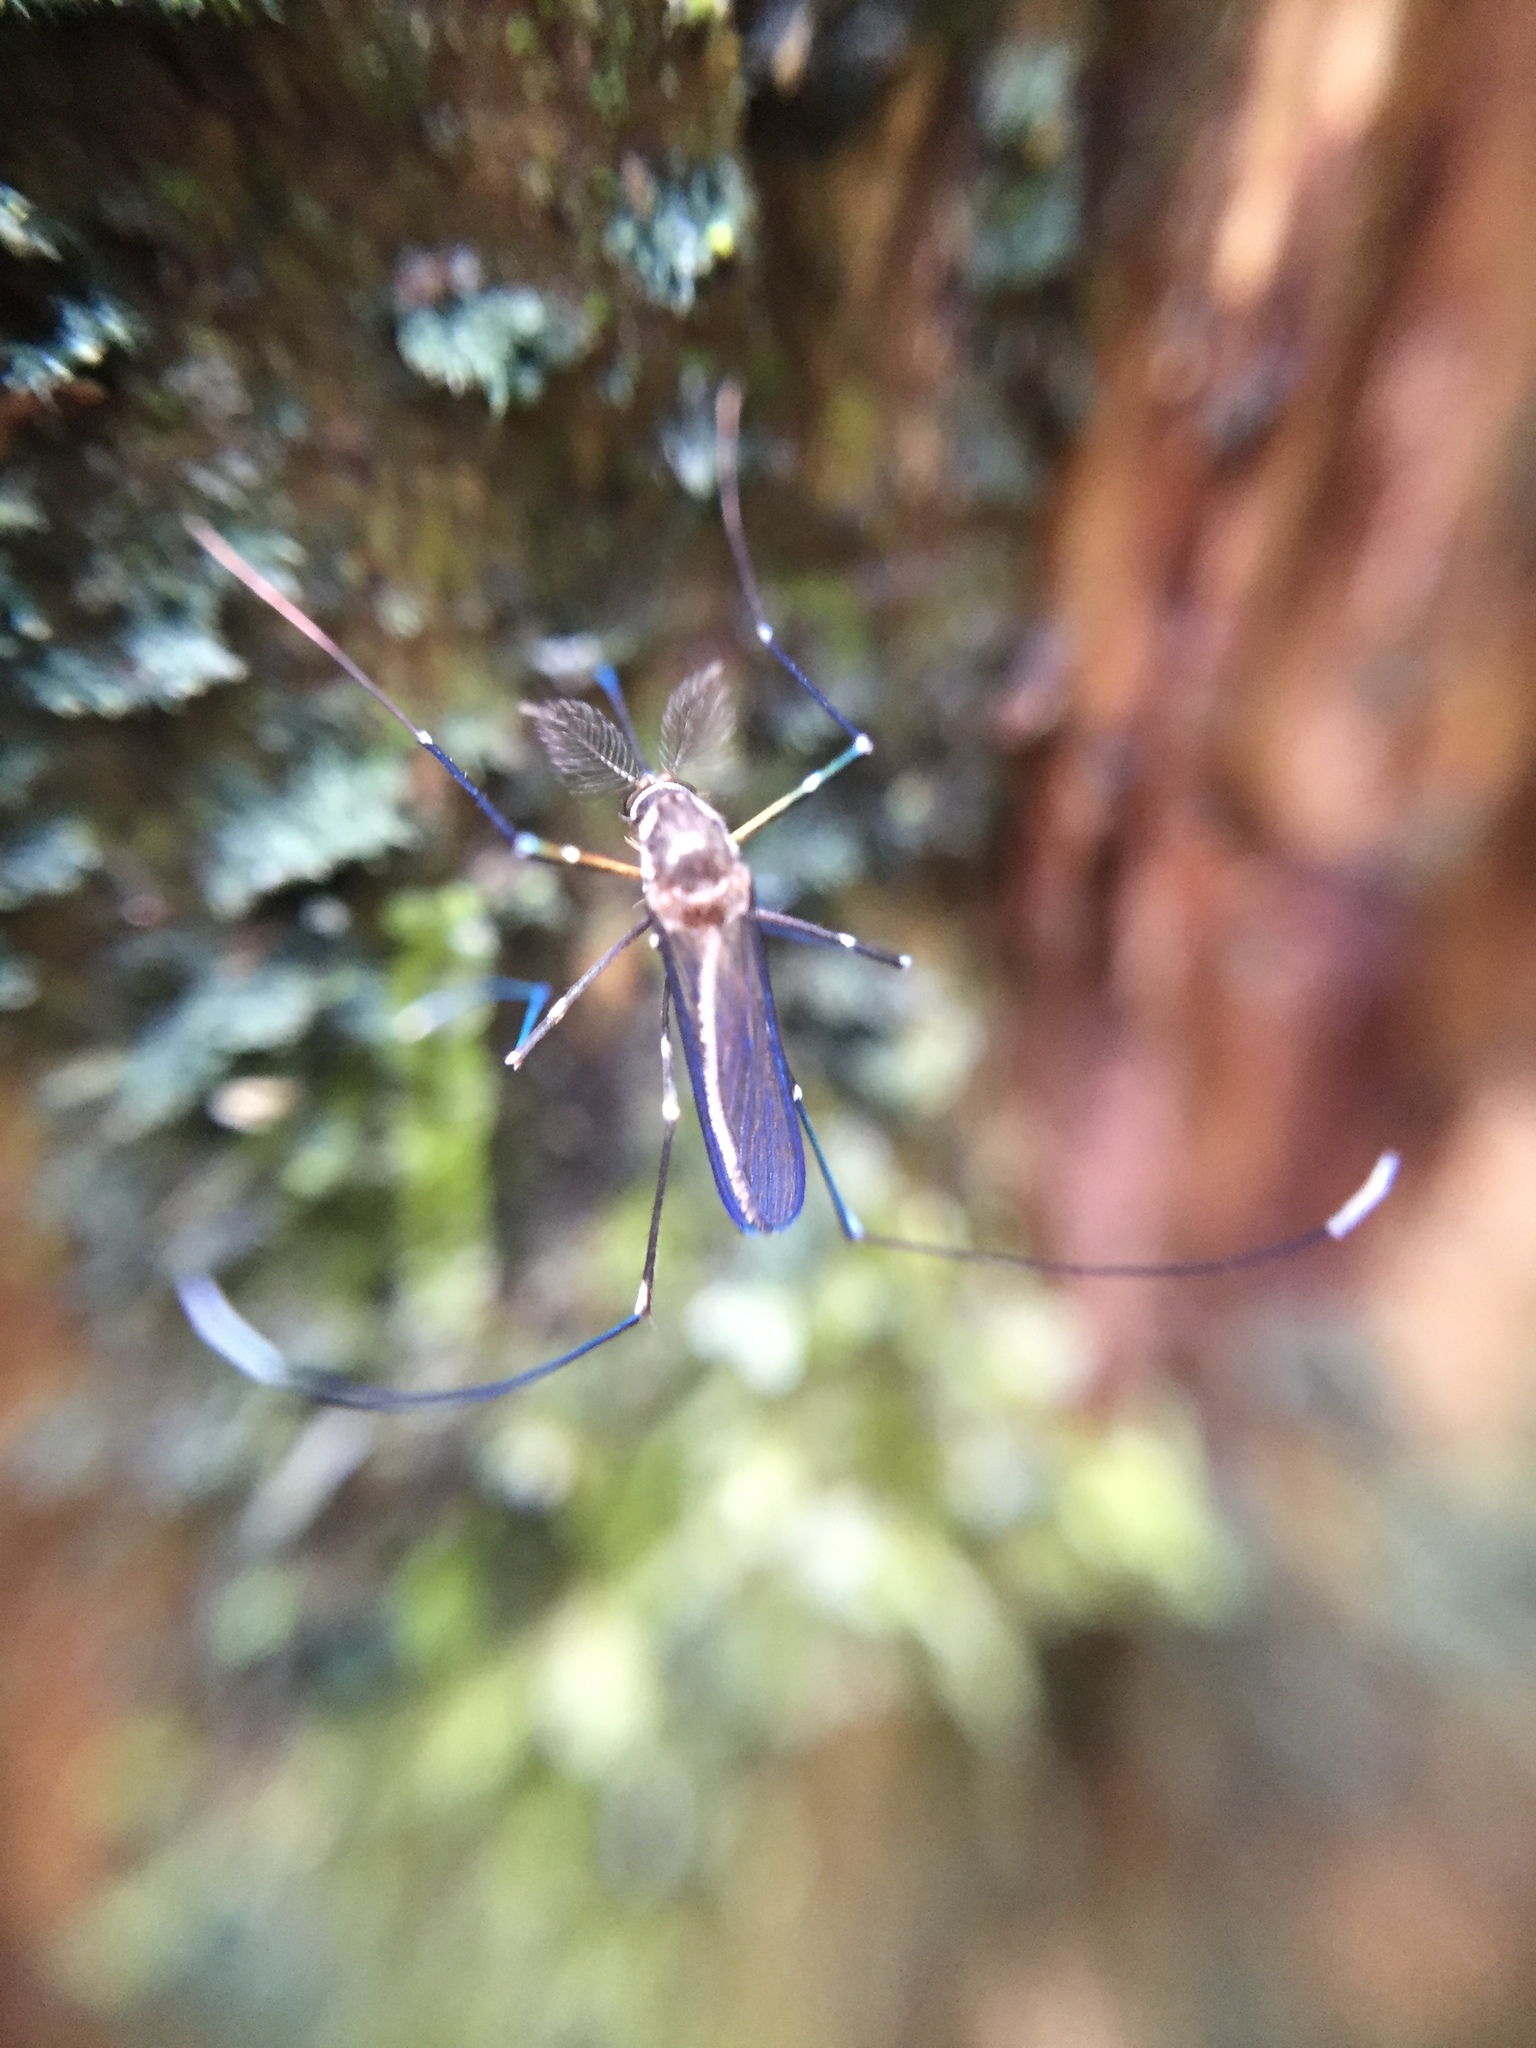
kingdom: Animalia
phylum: Arthropoda
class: Insecta
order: Diptera
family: Culicidae
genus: Maorigoeldia
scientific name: Maorigoeldia argyropus
